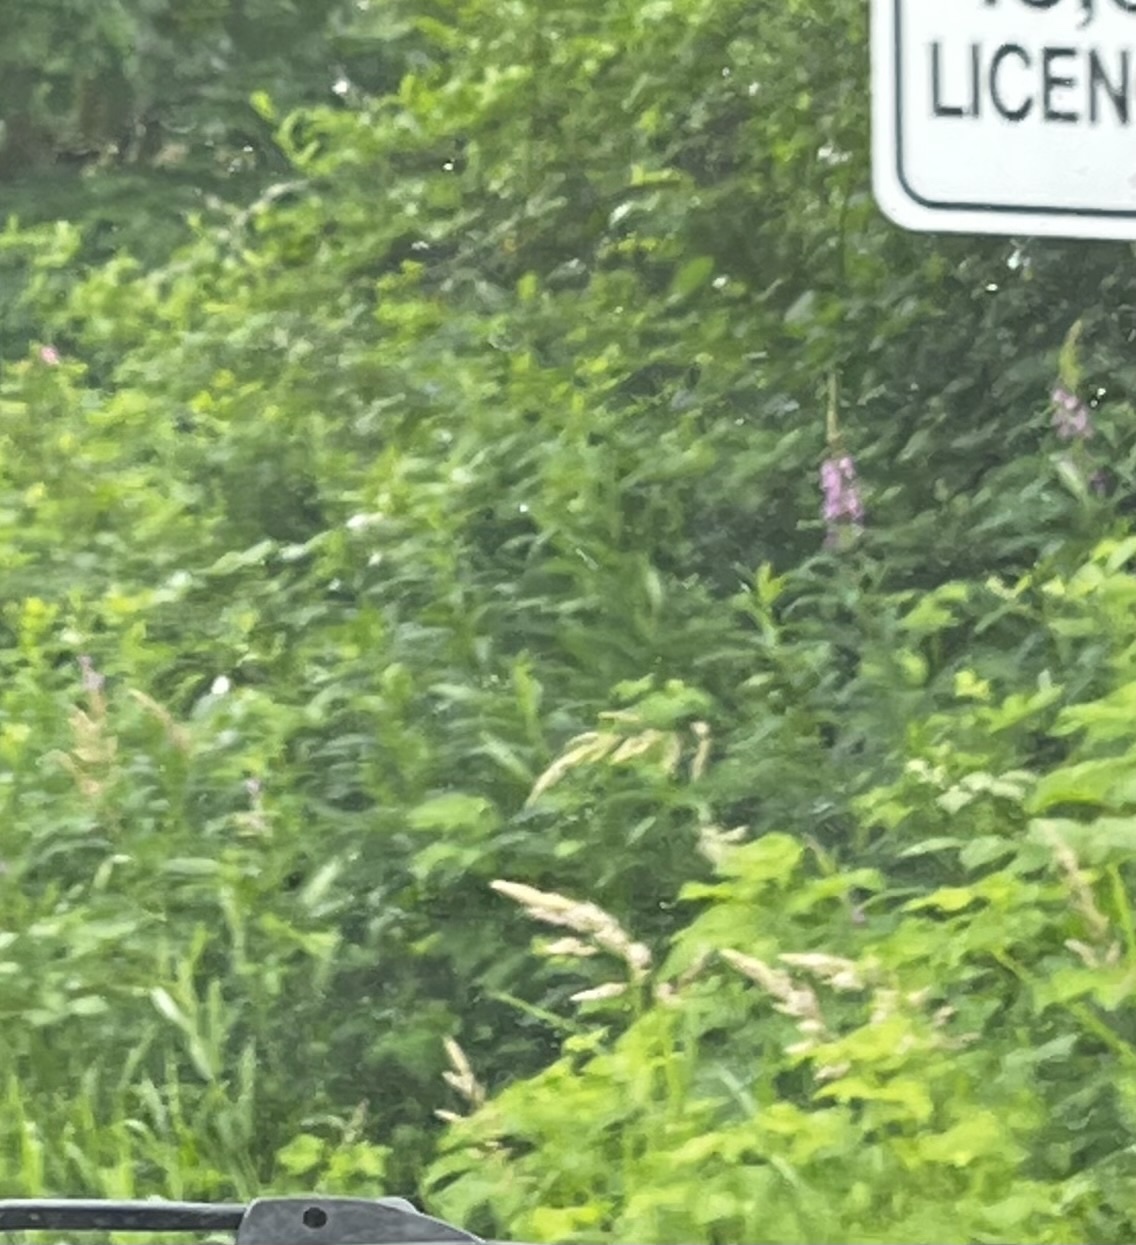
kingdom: Plantae
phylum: Tracheophyta
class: Magnoliopsida
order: Myrtales
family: Onagraceae
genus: Chamaenerion
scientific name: Chamaenerion angustifolium
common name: Fireweed
